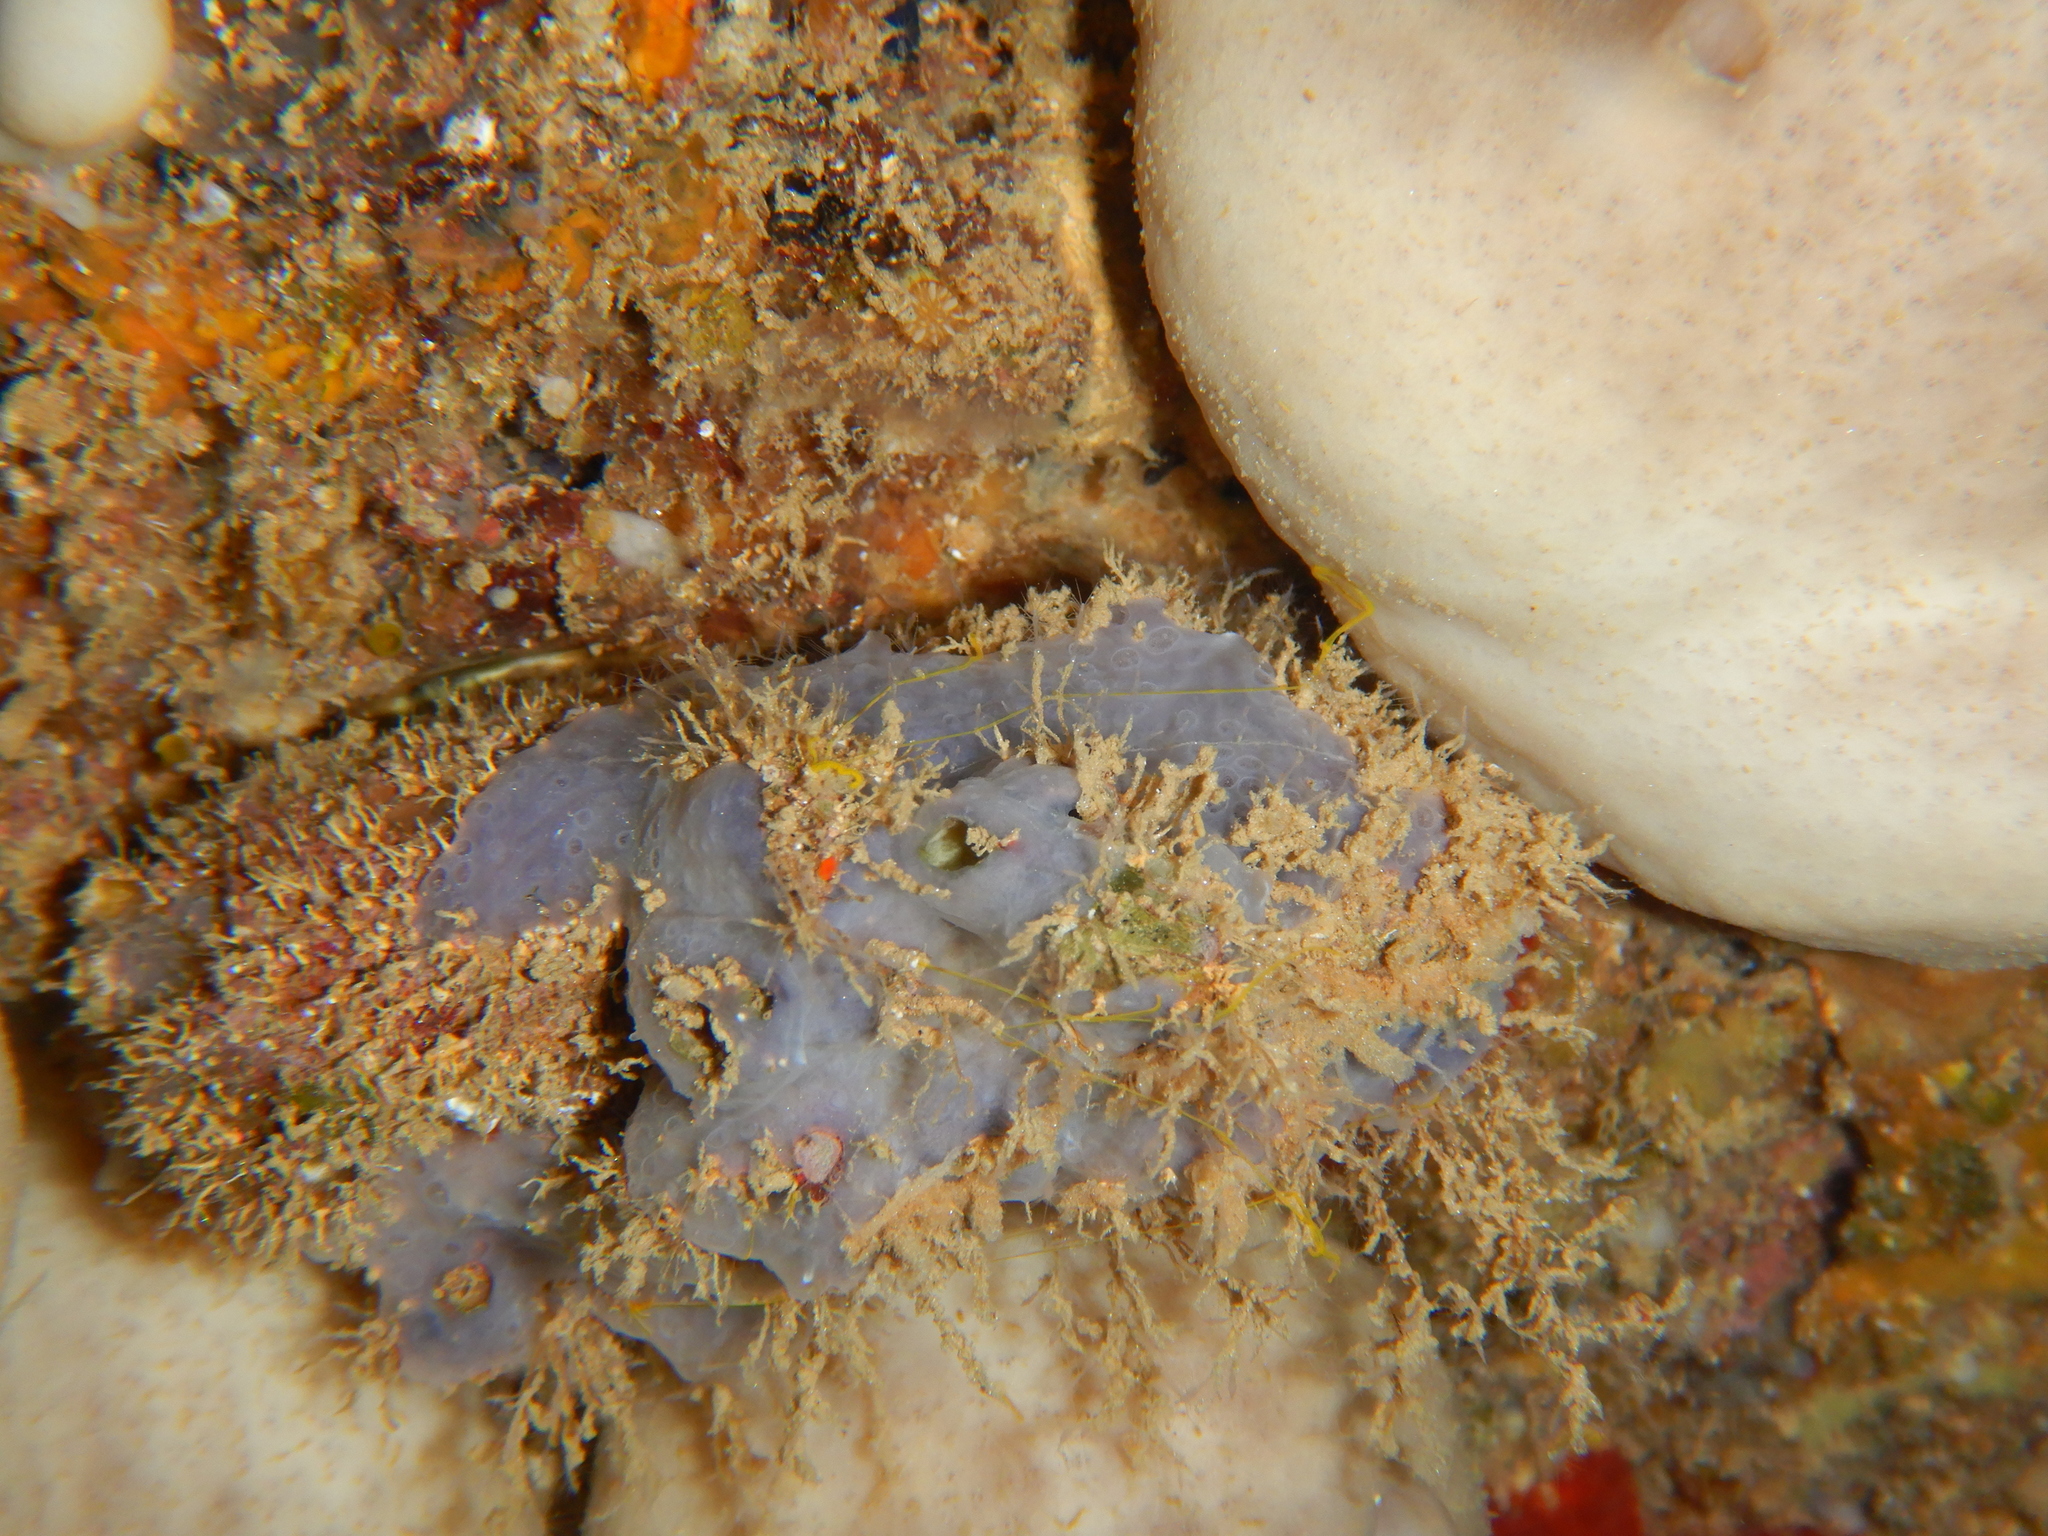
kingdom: Animalia
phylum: Porifera
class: Demospongiae
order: Poecilosclerida
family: Hymedesmiidae
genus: Phorbas
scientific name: Phorbas tenacior
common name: Bluish encrusting sponge
